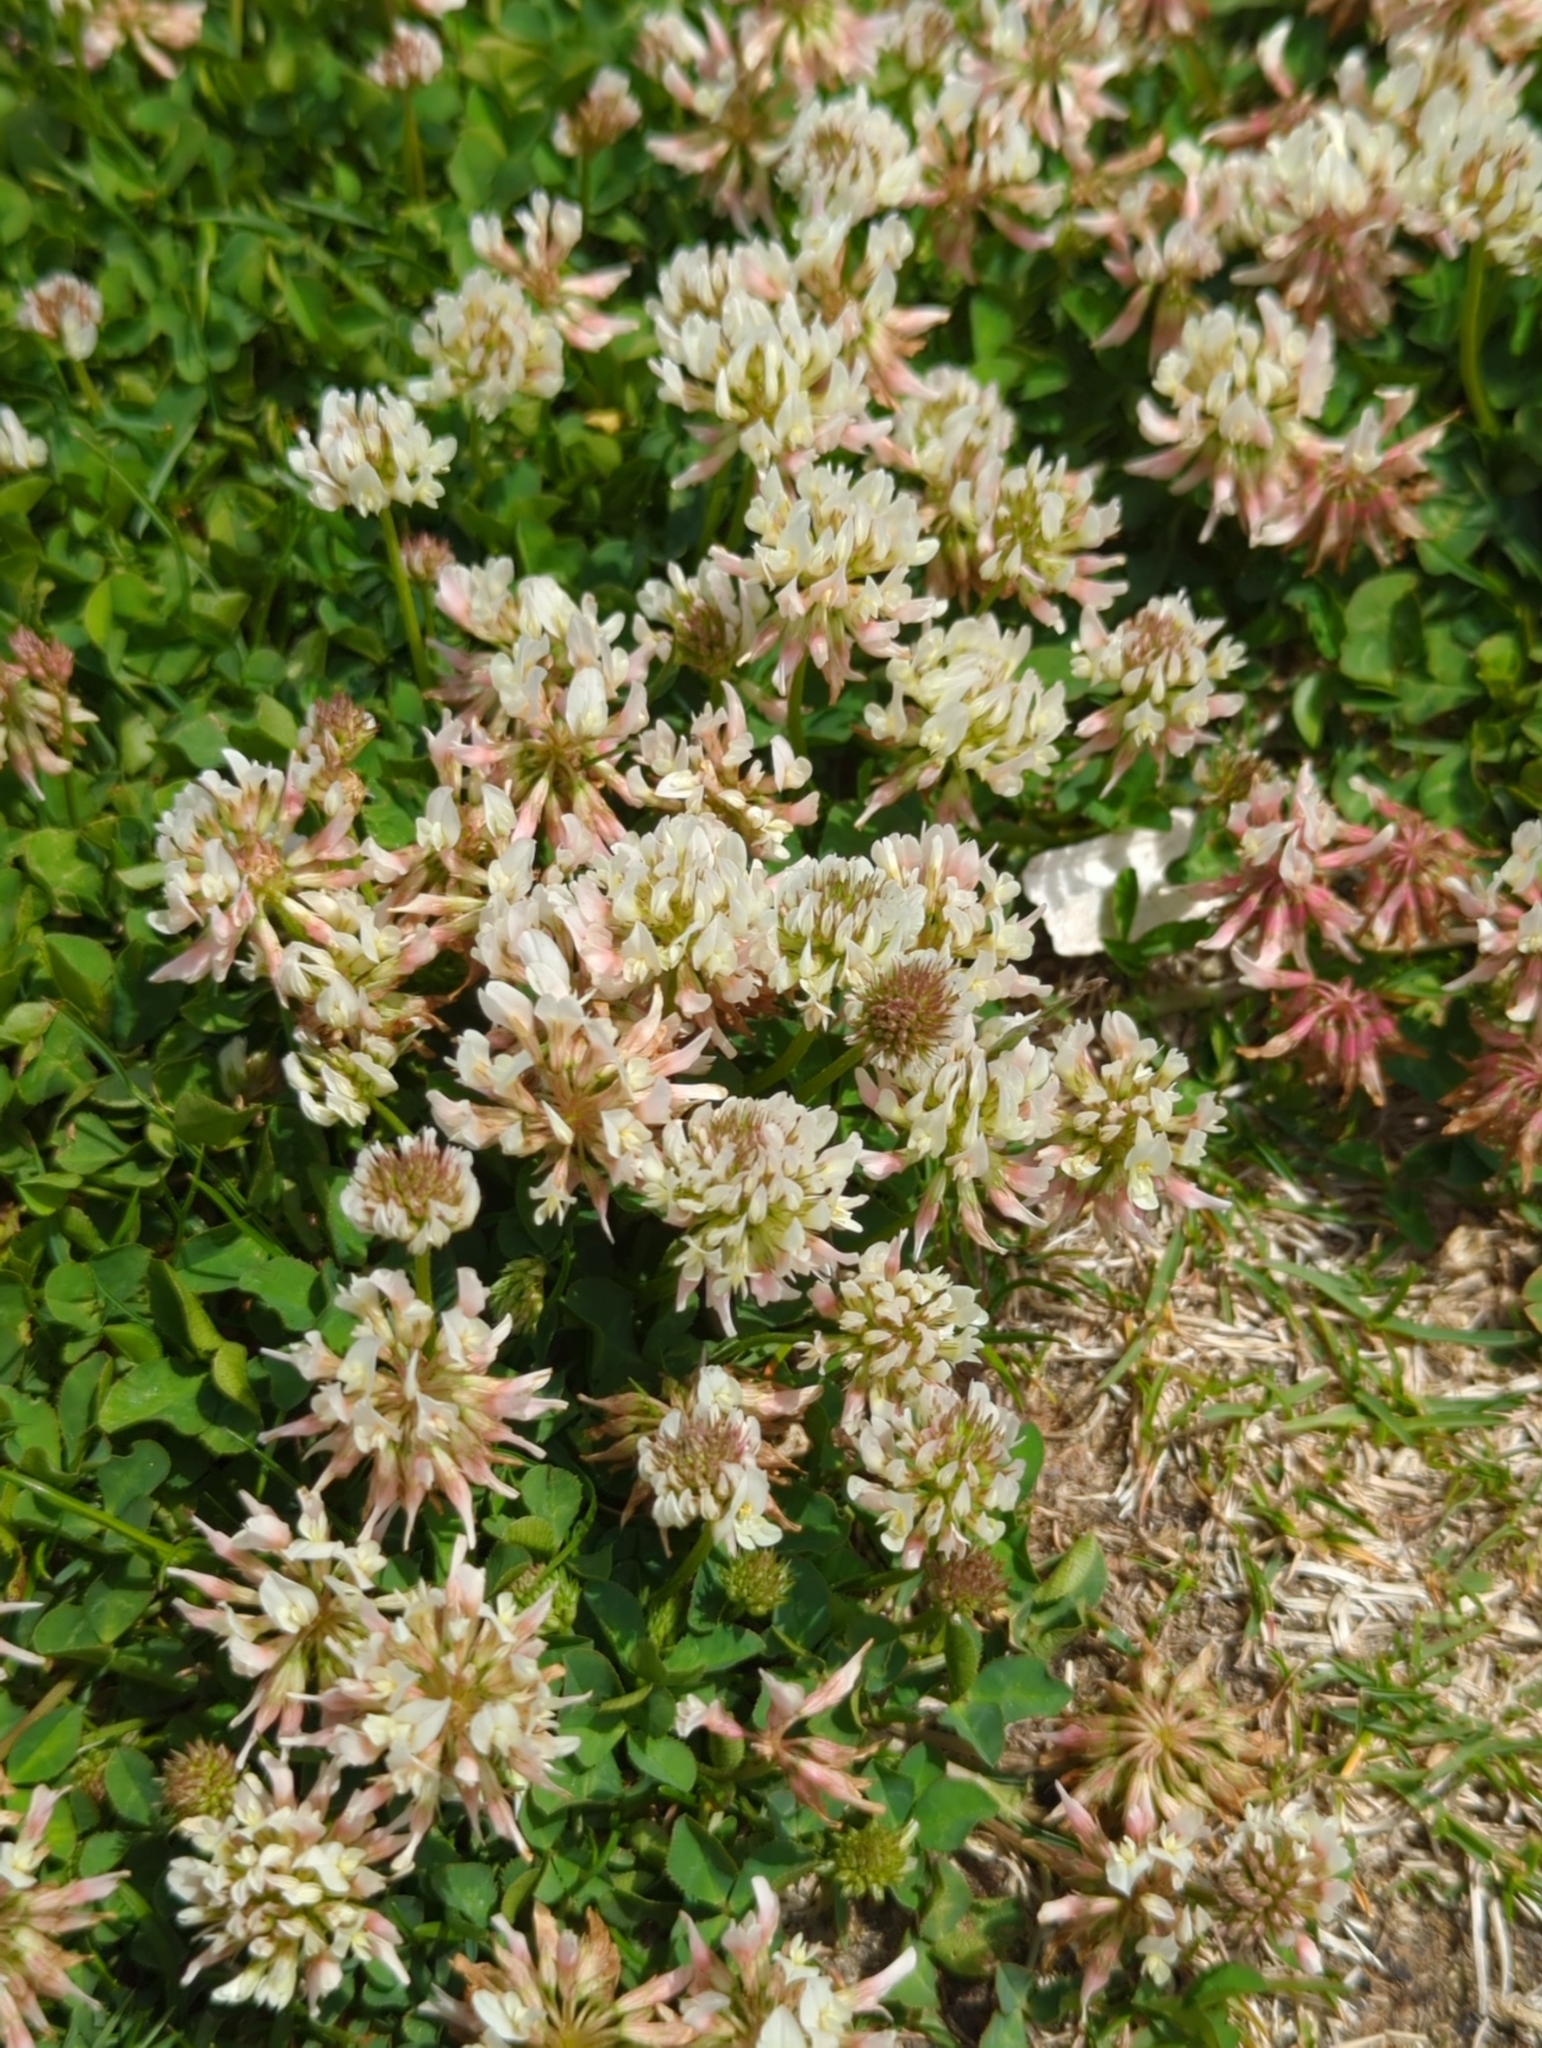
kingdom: Plantae
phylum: Tracheophyta
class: Magnoliopsida
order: Fabales
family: Fabaceae
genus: Trifolium
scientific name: Trifolium repens
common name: White clover
